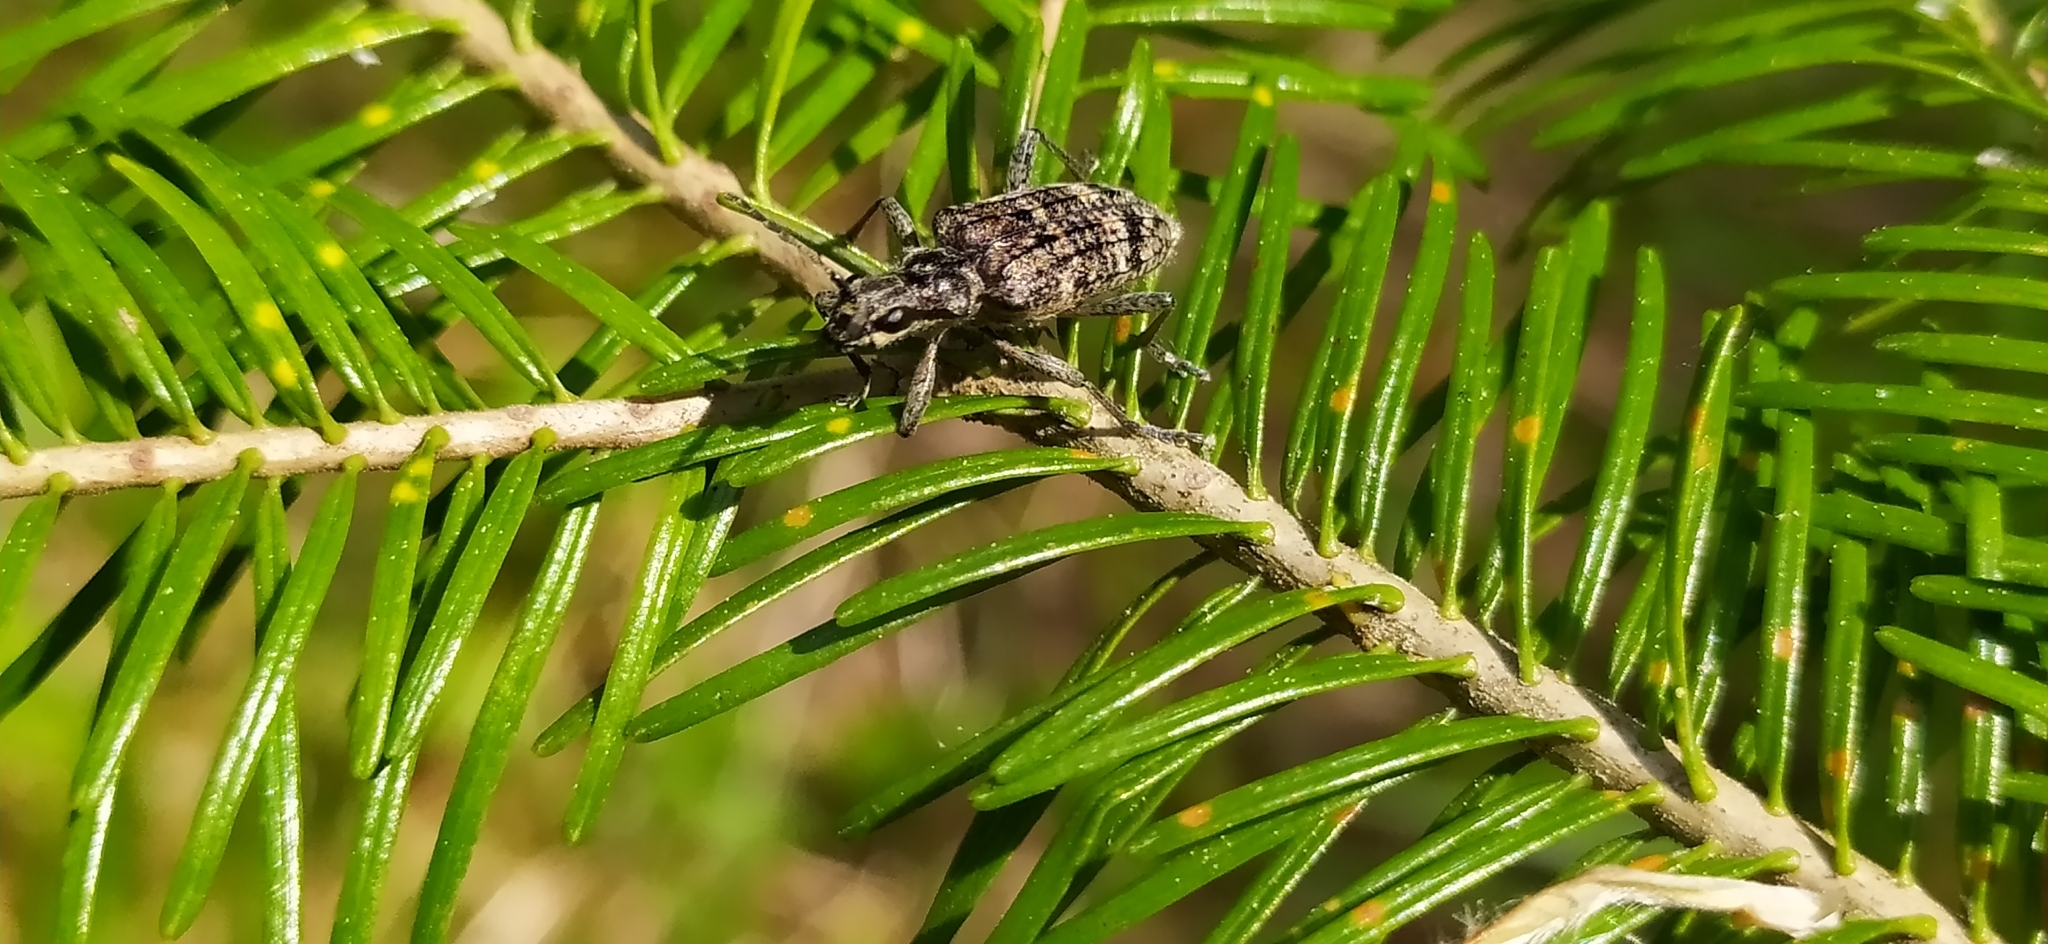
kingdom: Animalia
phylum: Arthropoda
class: Insecta
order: Coleoptera
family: Cerambycidae
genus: Rhagium
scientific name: Rhagium inquisitor
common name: Ribbed pine borer
